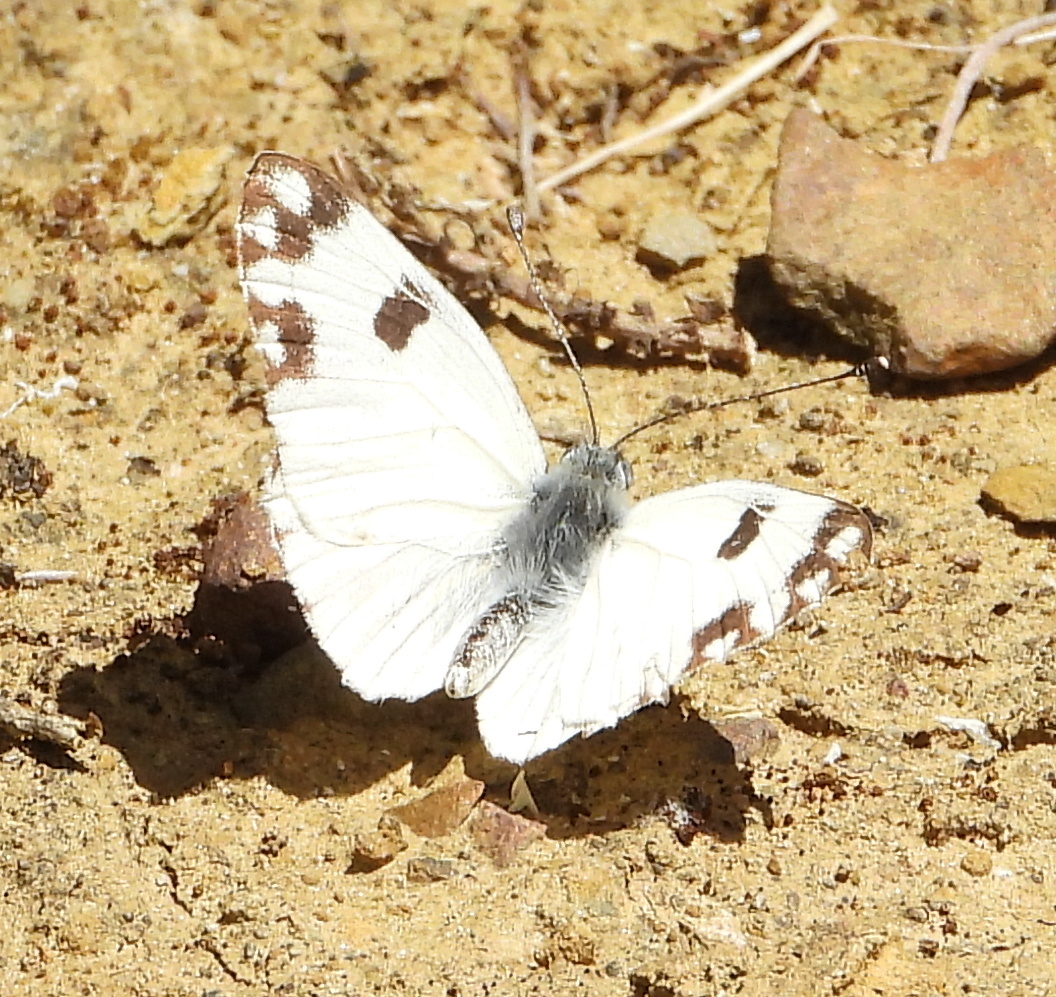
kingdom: Animalia
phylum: Arthropoda
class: Insecta
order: Lepidoptera
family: Pieridae
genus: Pontia
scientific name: Pontia helice
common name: Meadow white
